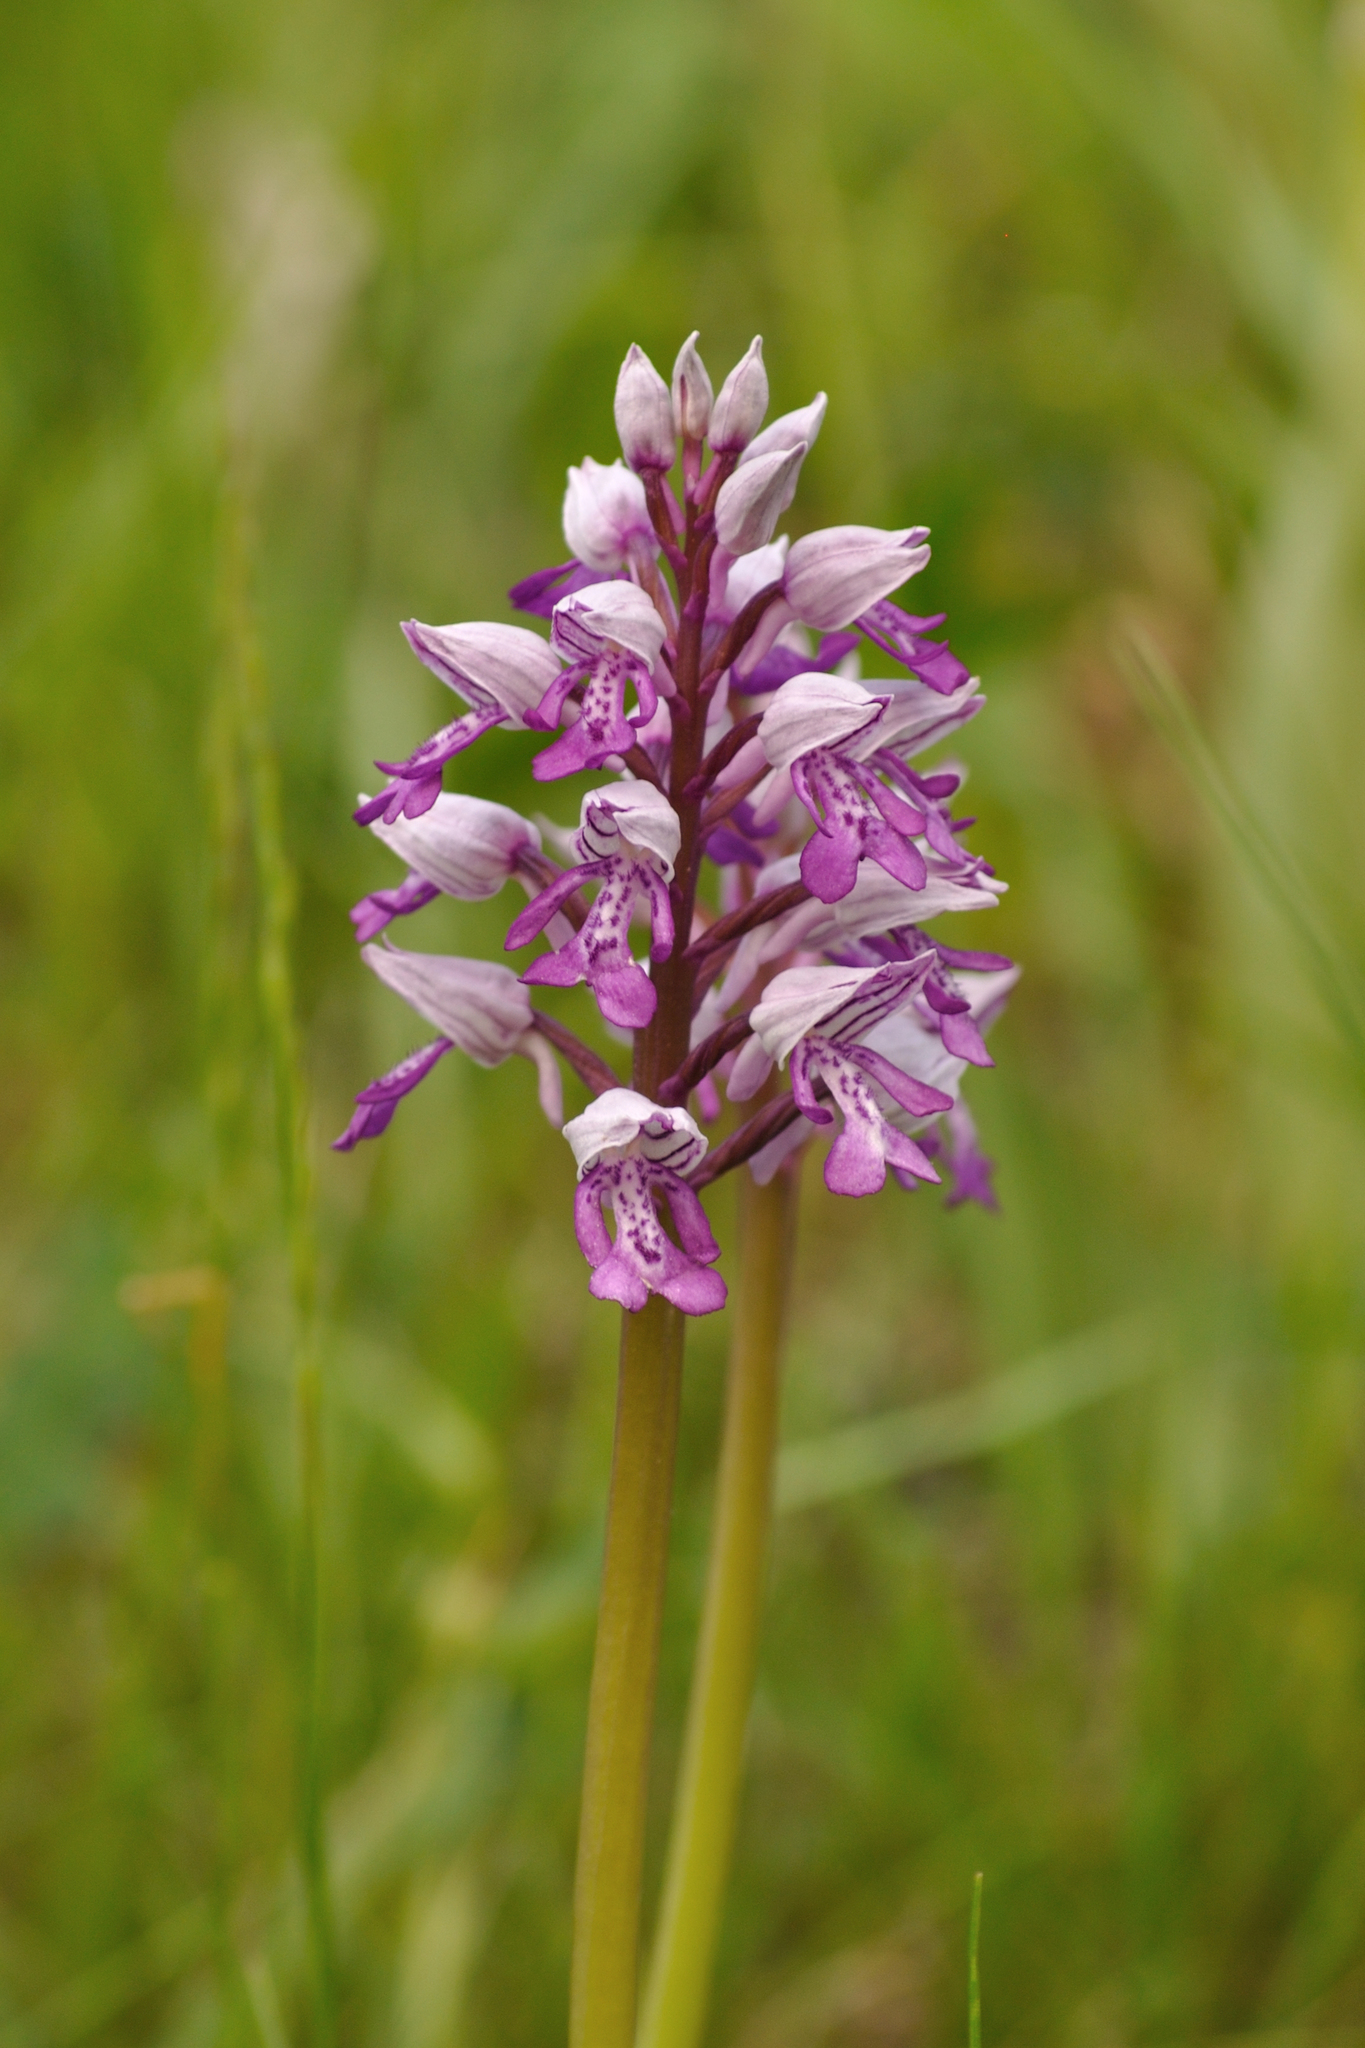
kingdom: Plantae
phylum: Tracheophyta
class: Liliopsida
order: Asparagales
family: Orchidaceae
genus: Orchis
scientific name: Orchis militaris
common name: Military orchid
